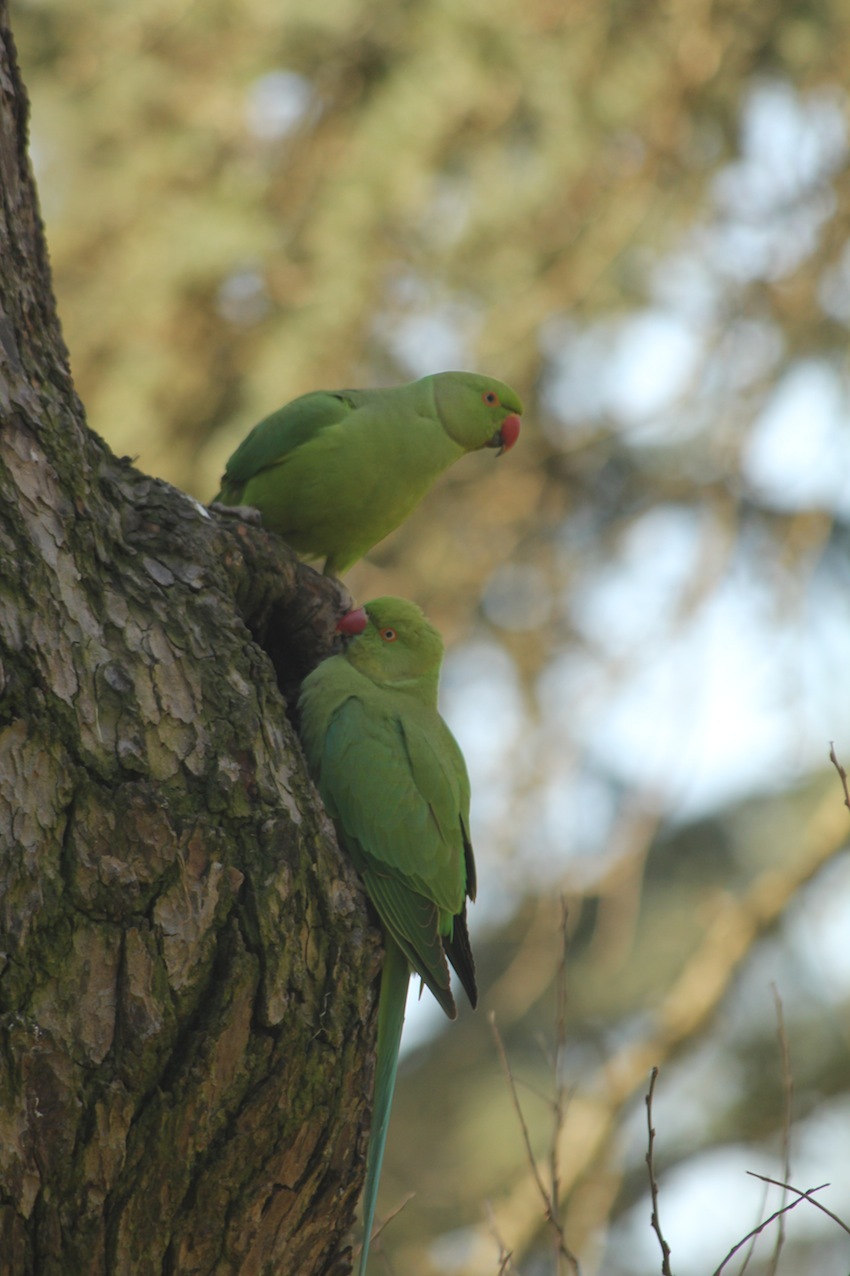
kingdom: Animalia
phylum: Chordata
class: Aves
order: Psittaciformes
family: Psittacidae
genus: Psittacula
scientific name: Psittacula krameri
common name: Rose-ringed parakeet
